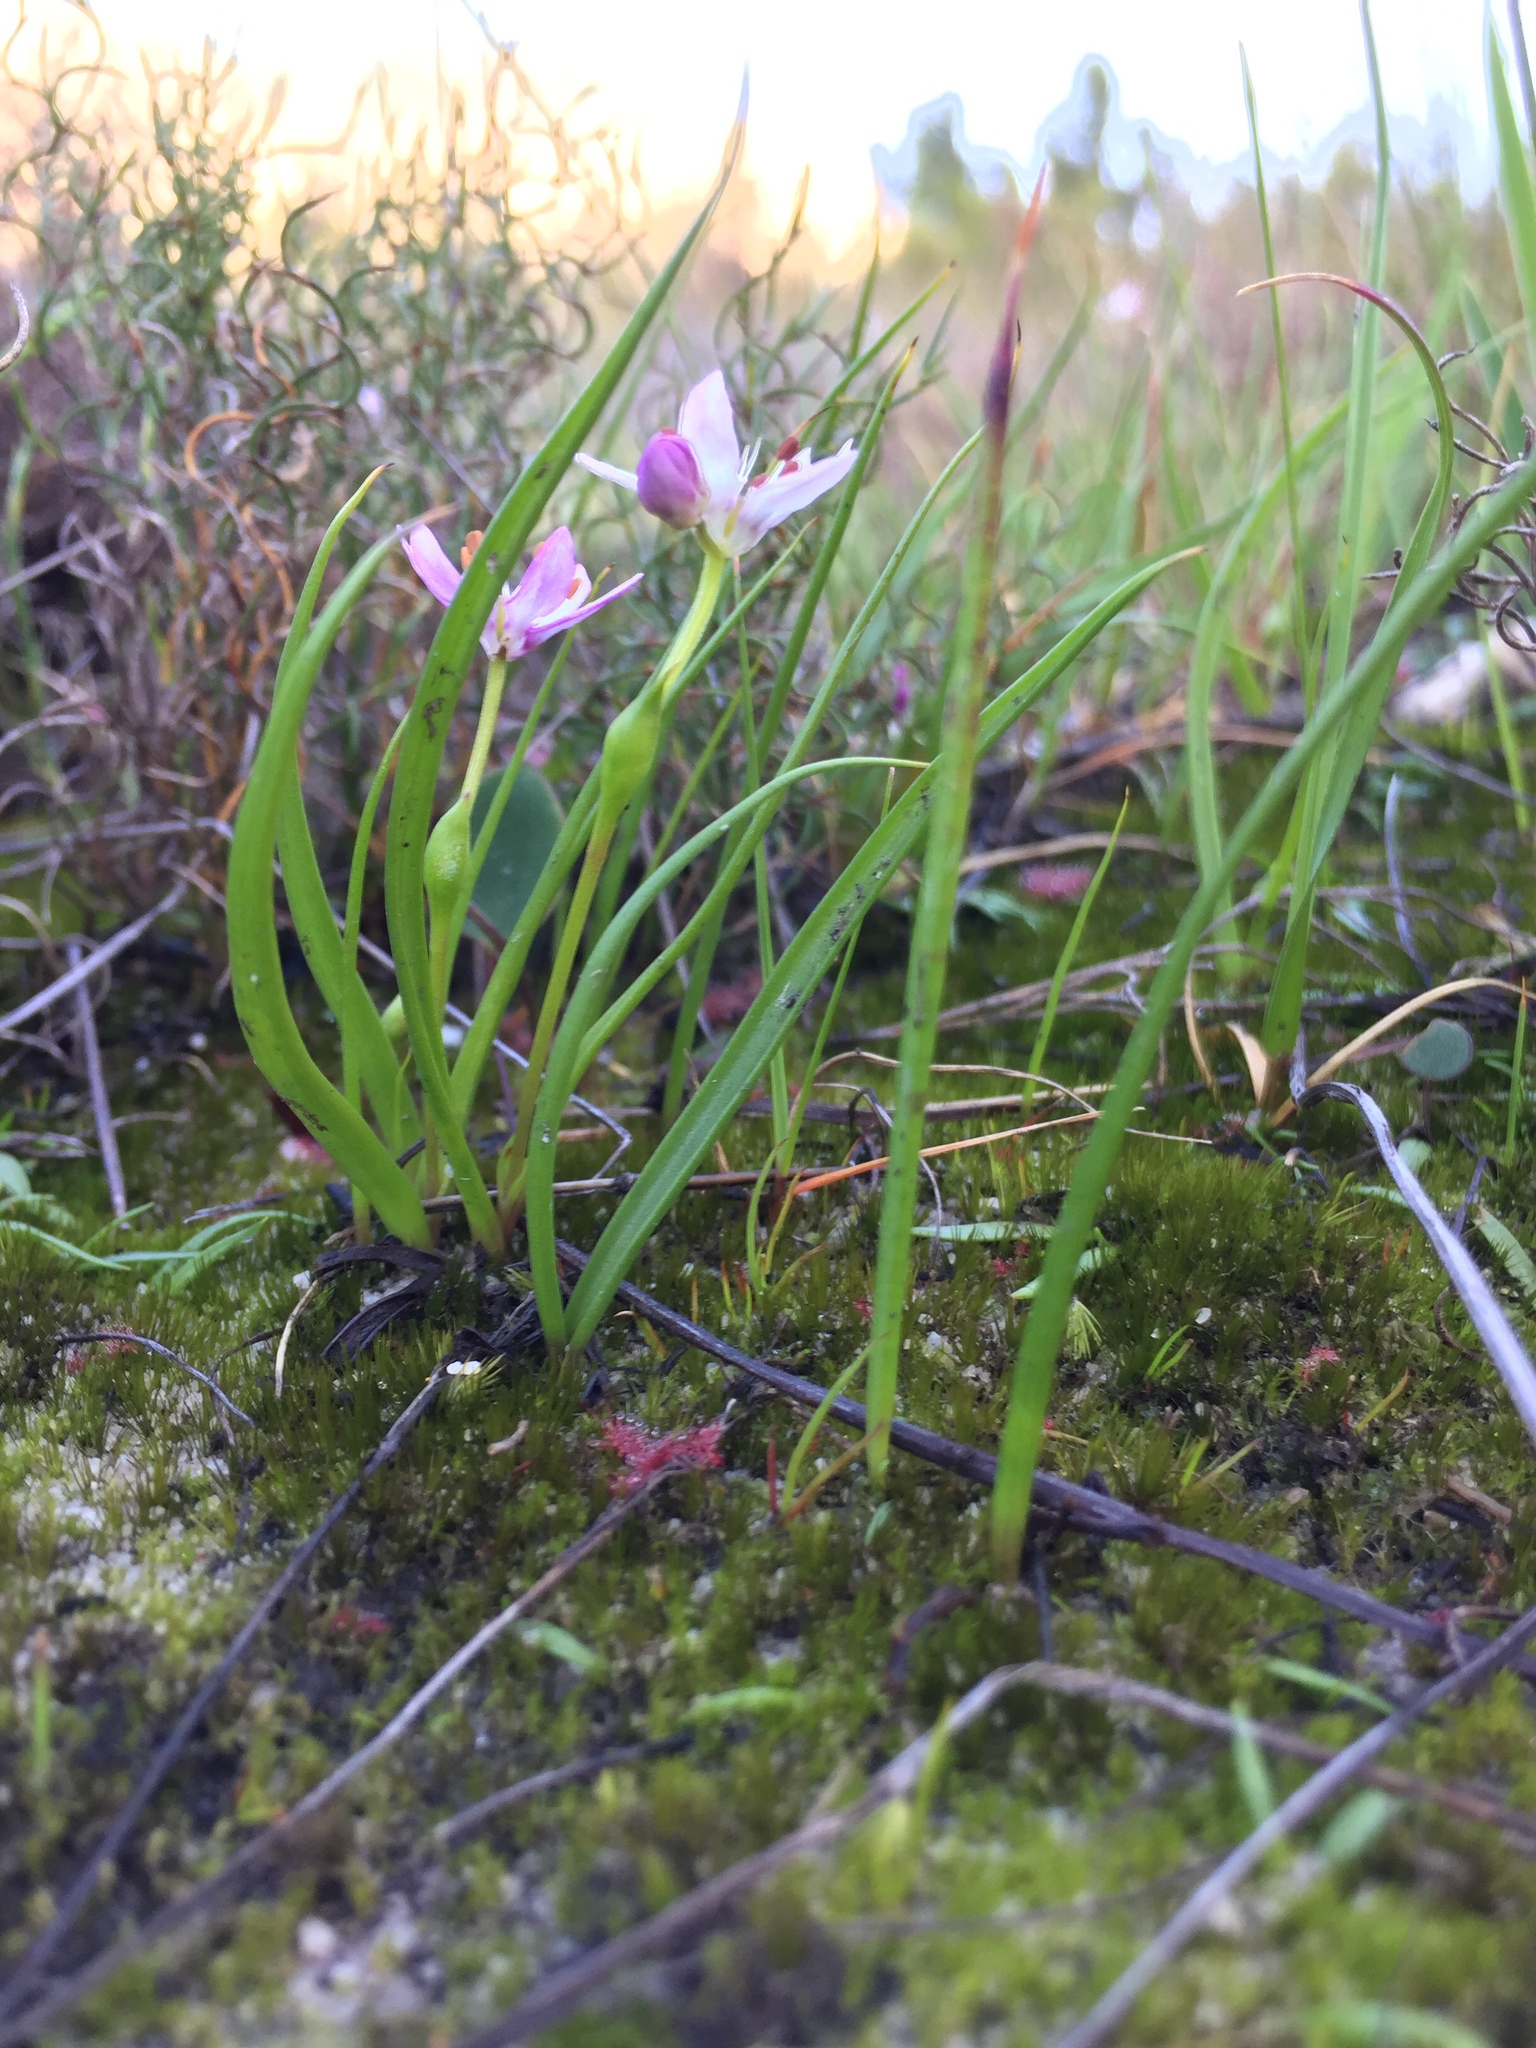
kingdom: Plantae
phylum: Tracheophyta
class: Liliopsida
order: Liliales
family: Colchicaceae
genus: Wurmbea
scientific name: Wurmbea punctata
